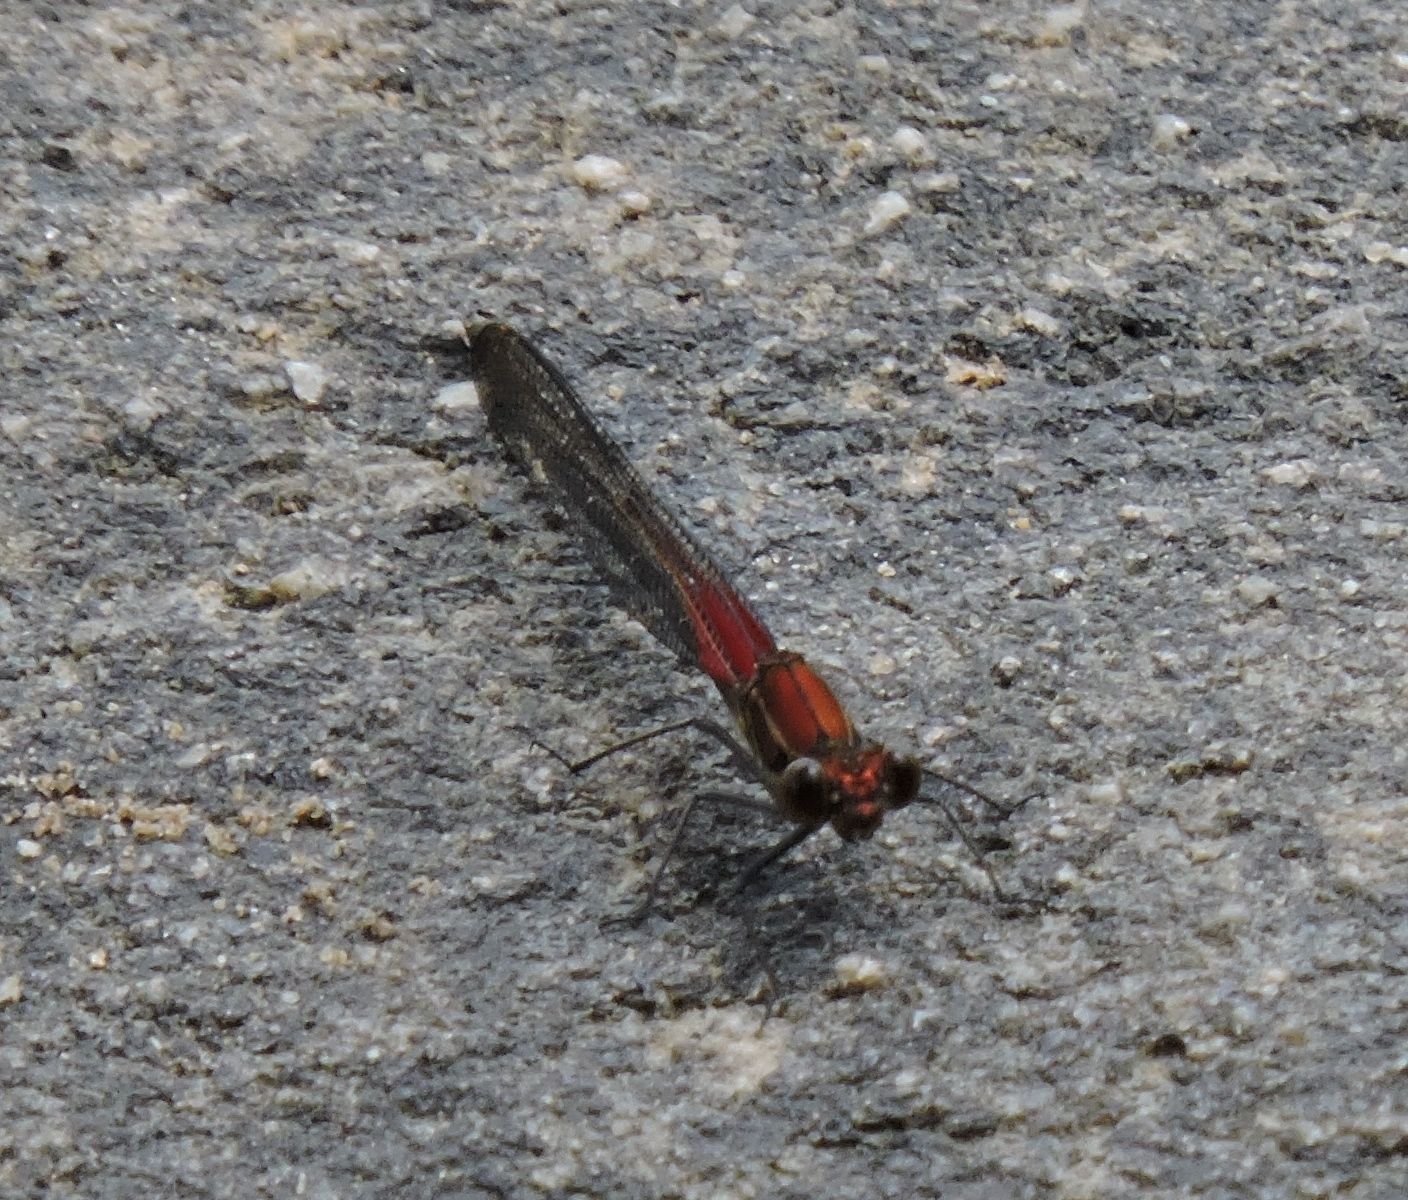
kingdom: Animalia
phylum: Arthropoda
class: Insecta
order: Odonata
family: Calopterygidae
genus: Hetaerina
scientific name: Hetaerina americana
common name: American rubyspot
